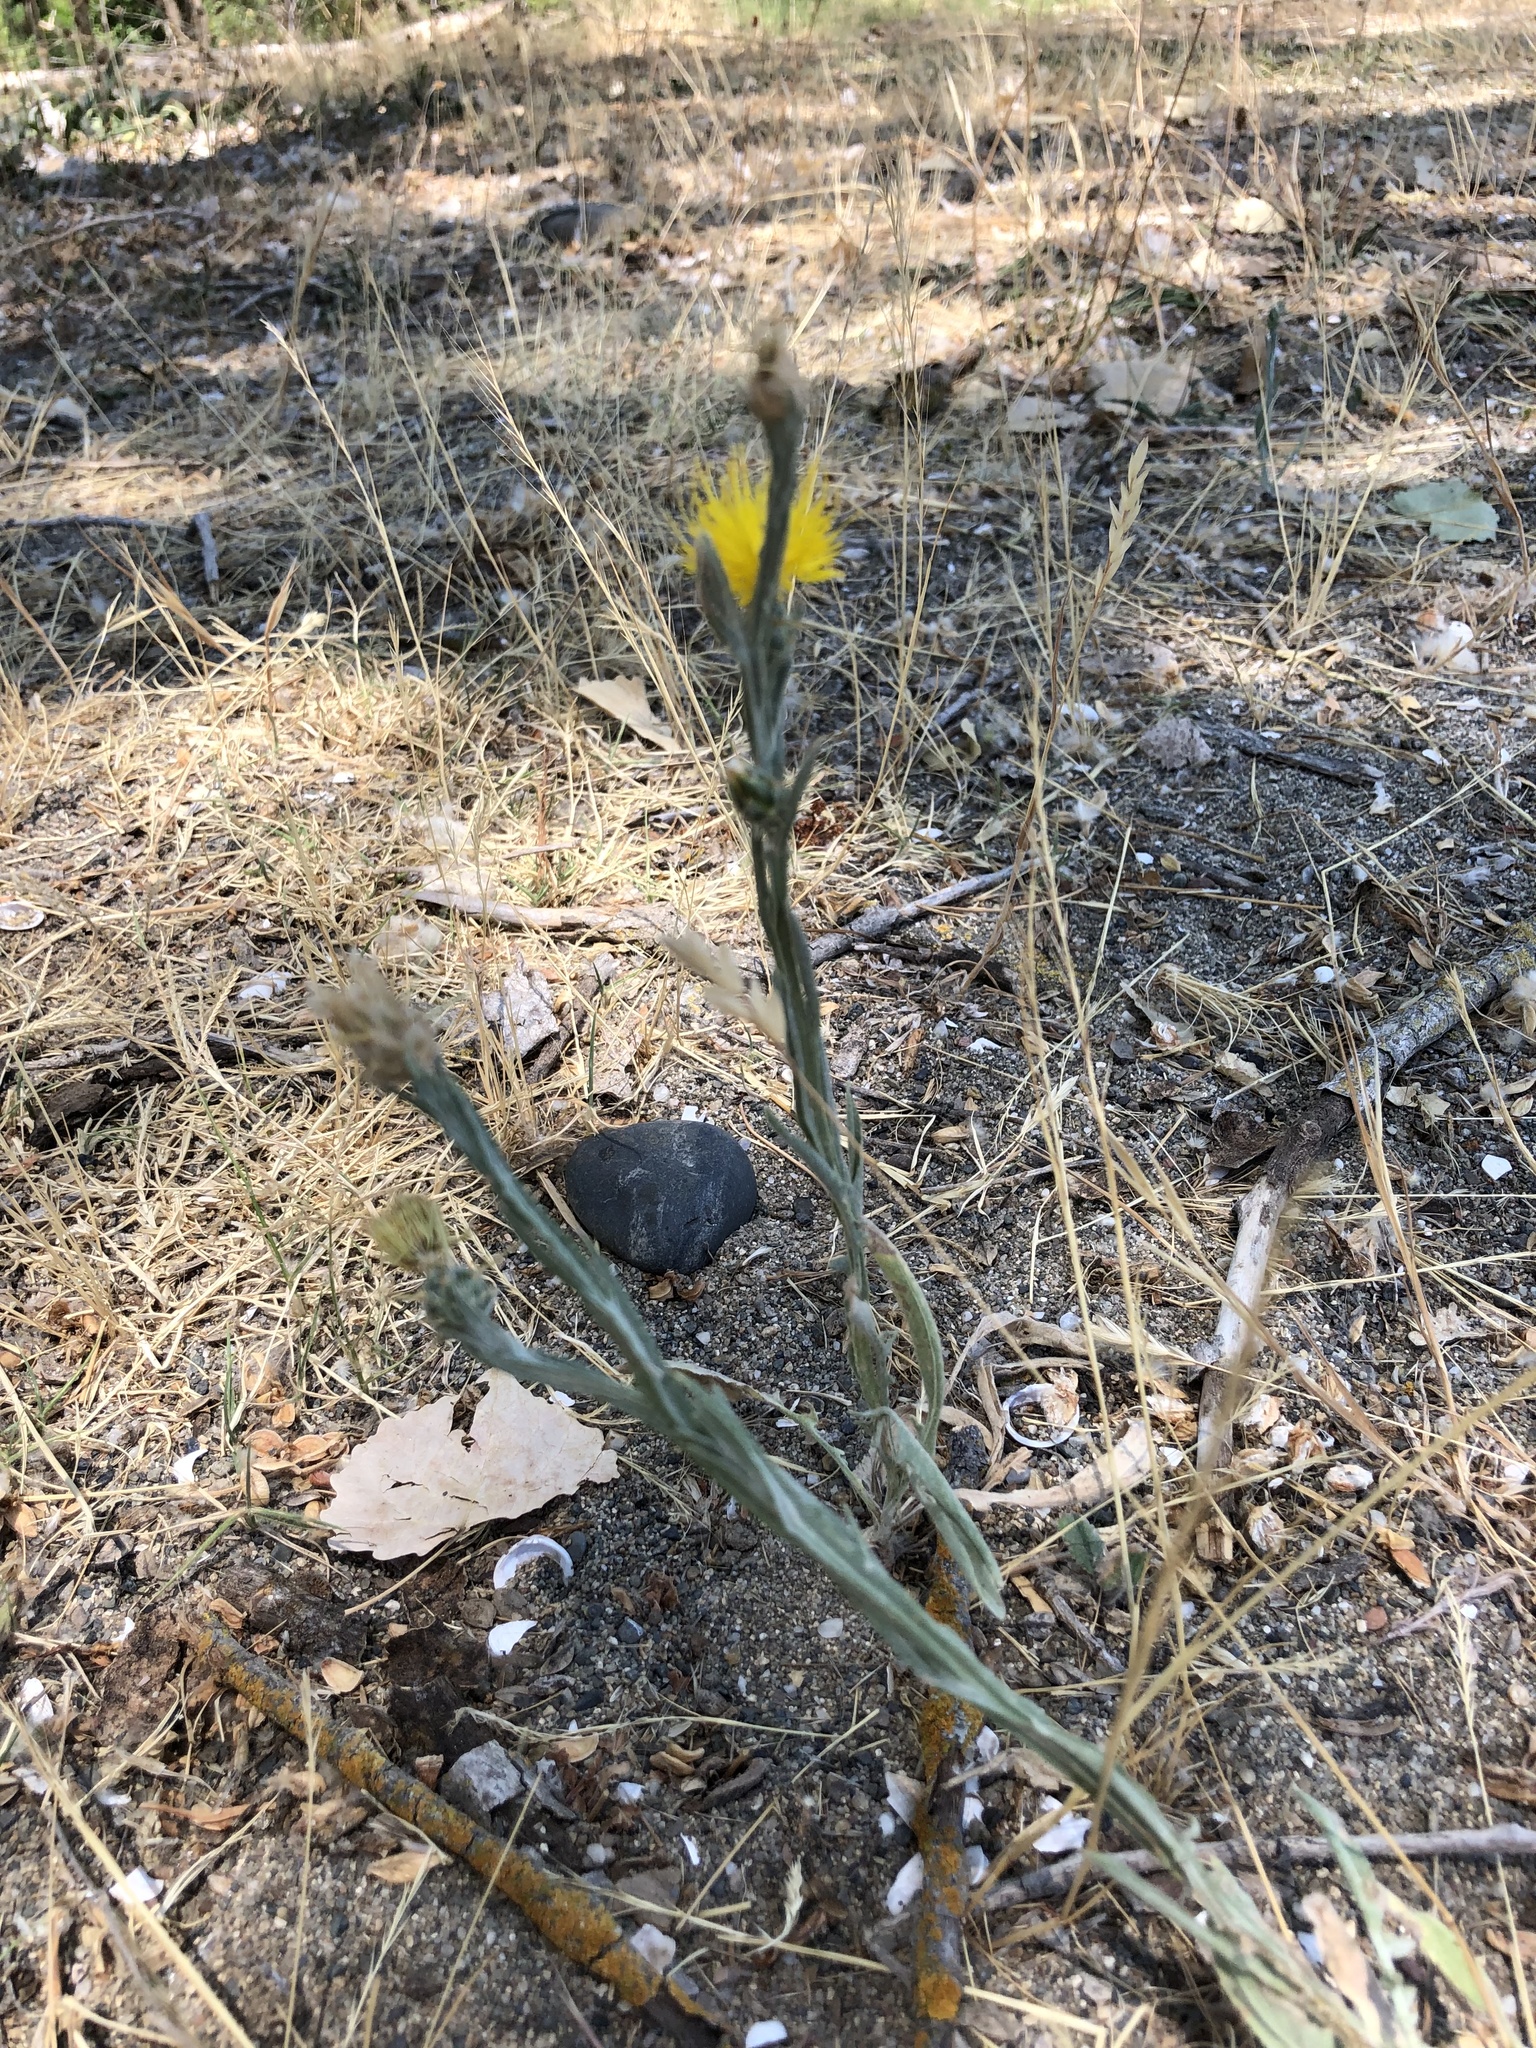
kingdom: Plantae
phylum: Tracheophyta
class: Magnoliopsida
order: Asterales
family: Asteraceae
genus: Centaurea
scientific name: Centaurea solstitialis
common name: Yellow star-thistle
